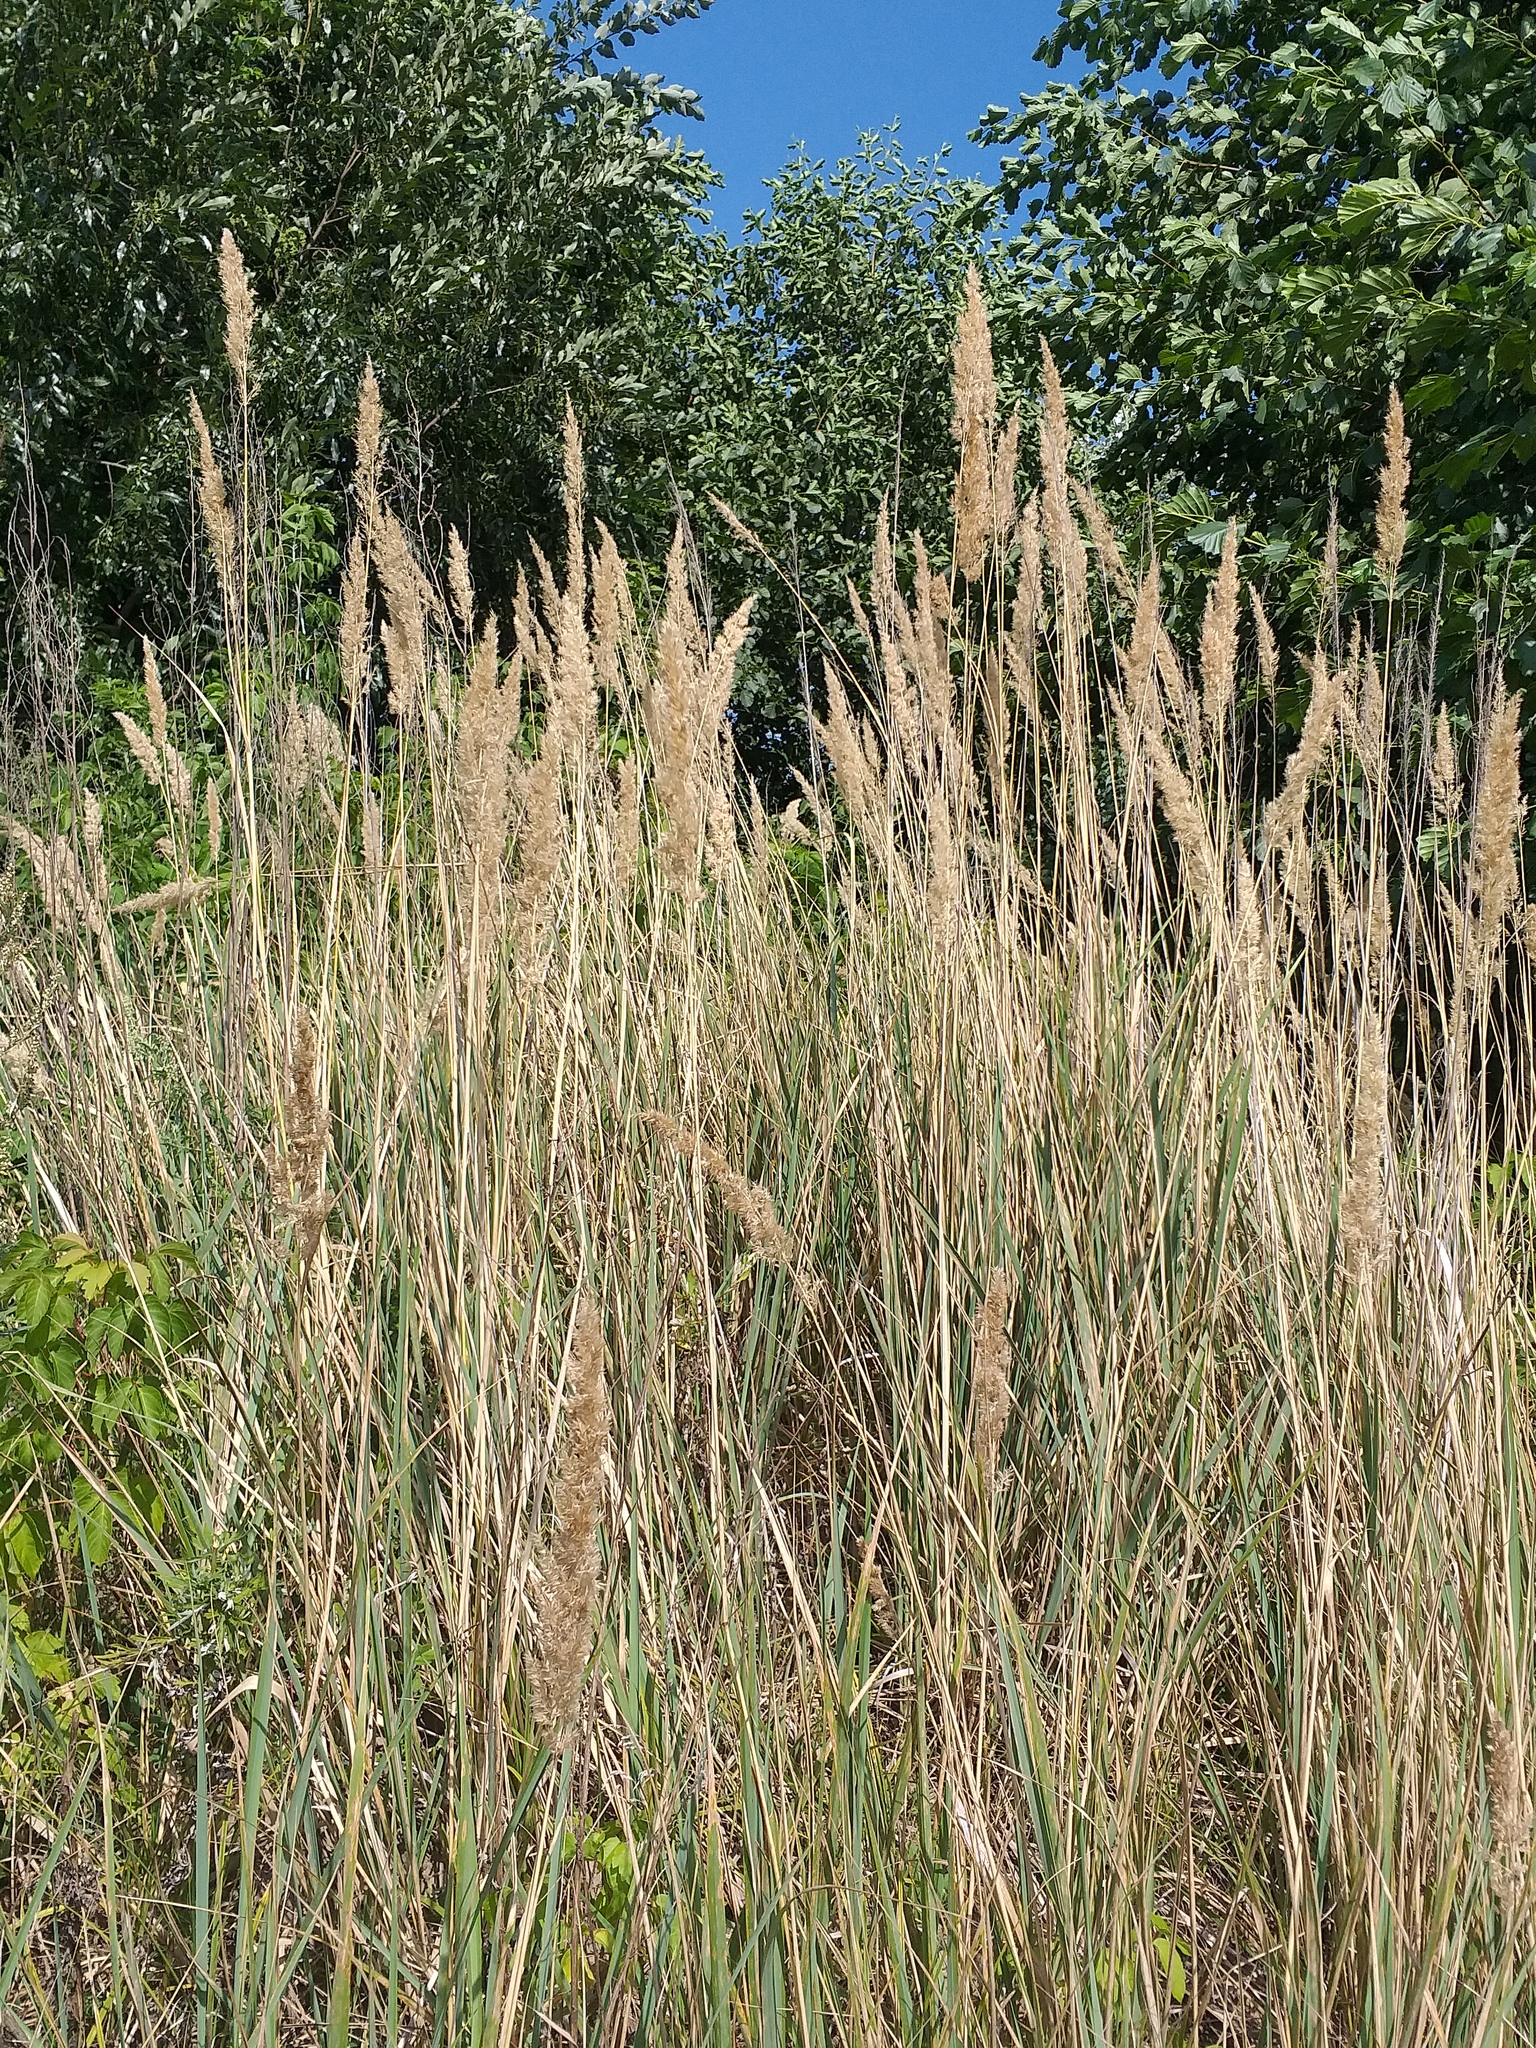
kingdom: Plantae
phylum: Tracheophyta
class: Liliopsida
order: Poales
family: Poaceae
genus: Calamagrostis
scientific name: Calamagrostis epigejos
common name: Wood small-reed
